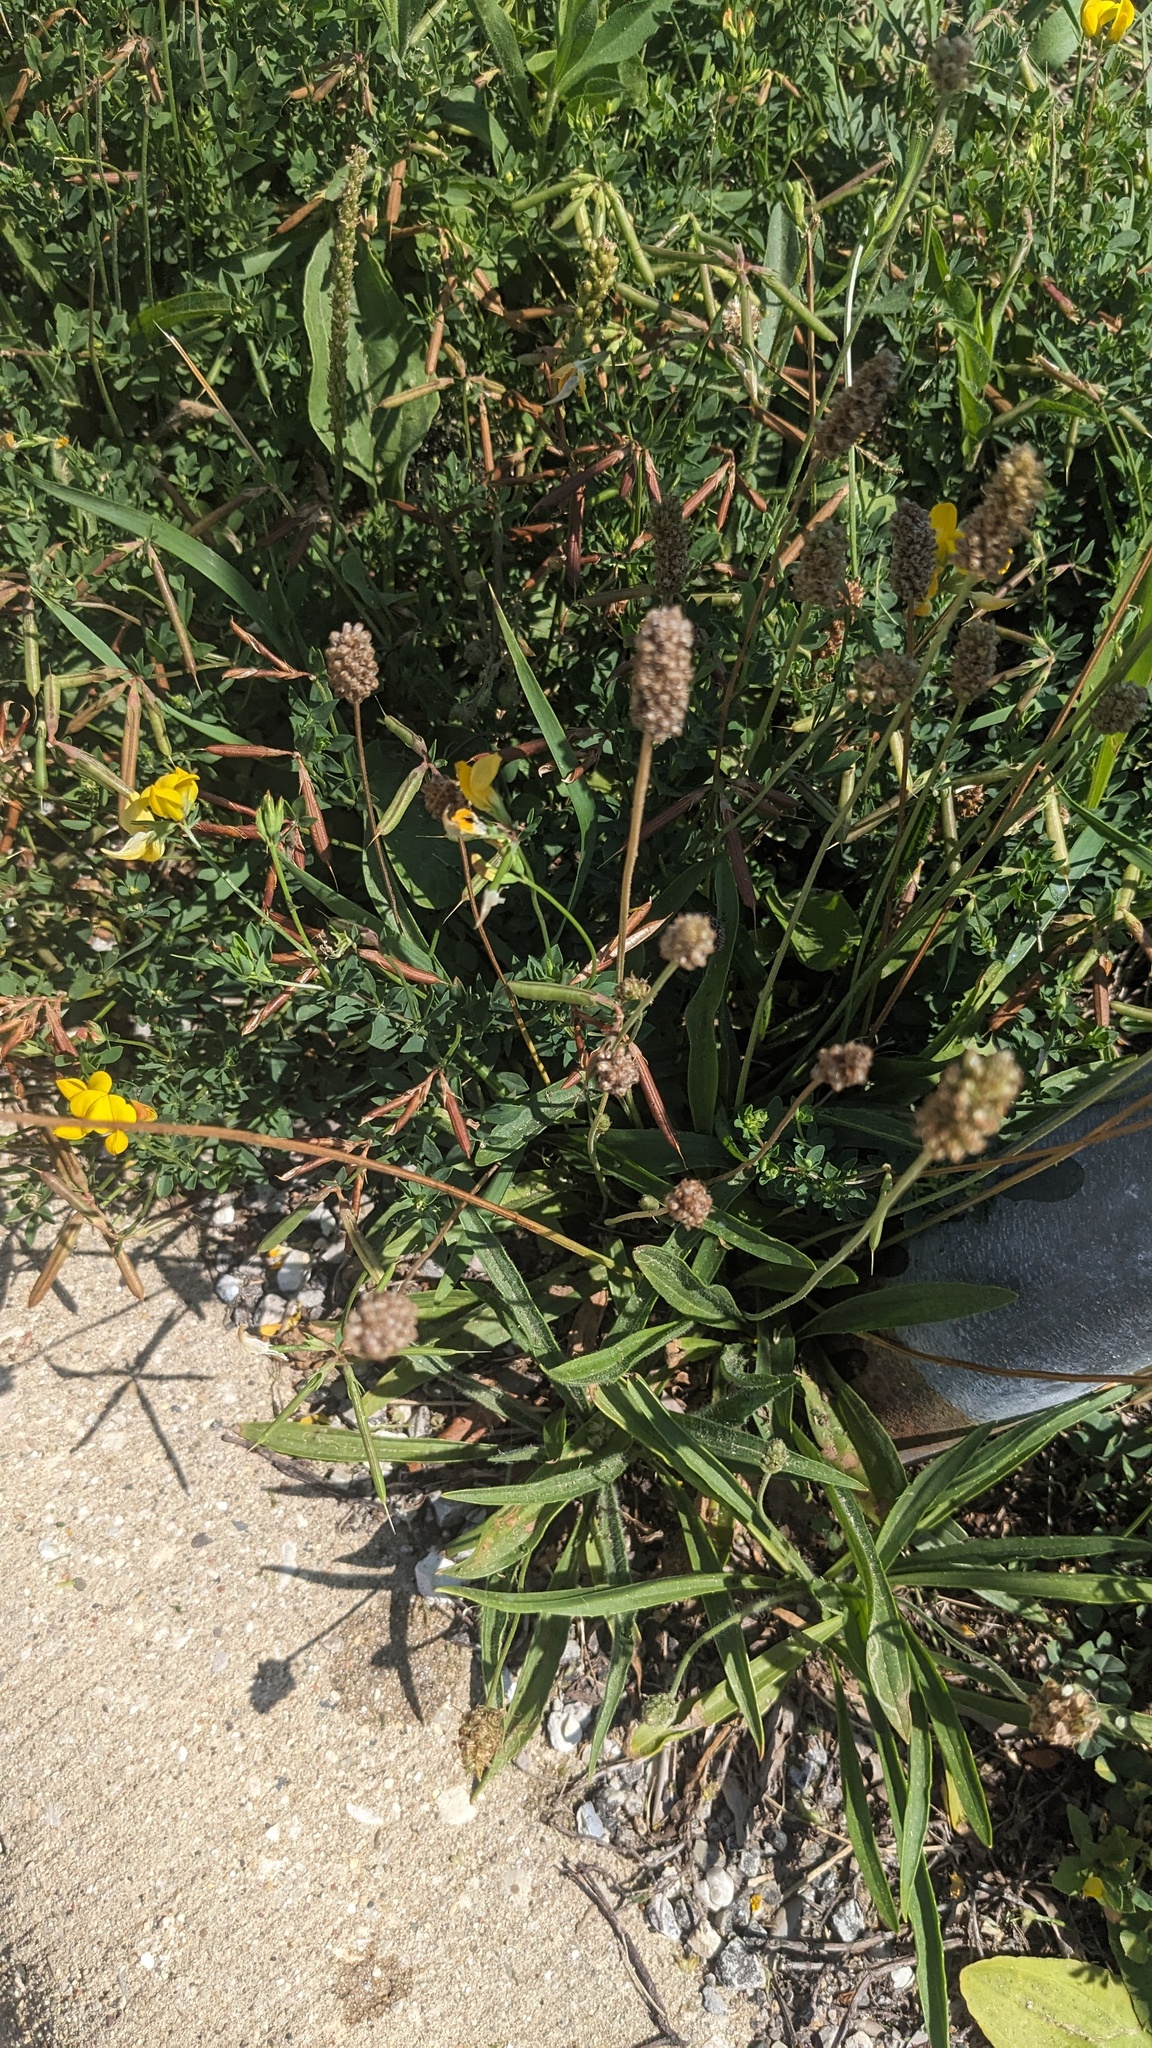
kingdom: Plantae
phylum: Tracheophyta
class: Magnoliopsida
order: Lamiales
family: Plantaginaceae
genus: Plantago
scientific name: Plantago lanceolata
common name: Ribwort plantain
